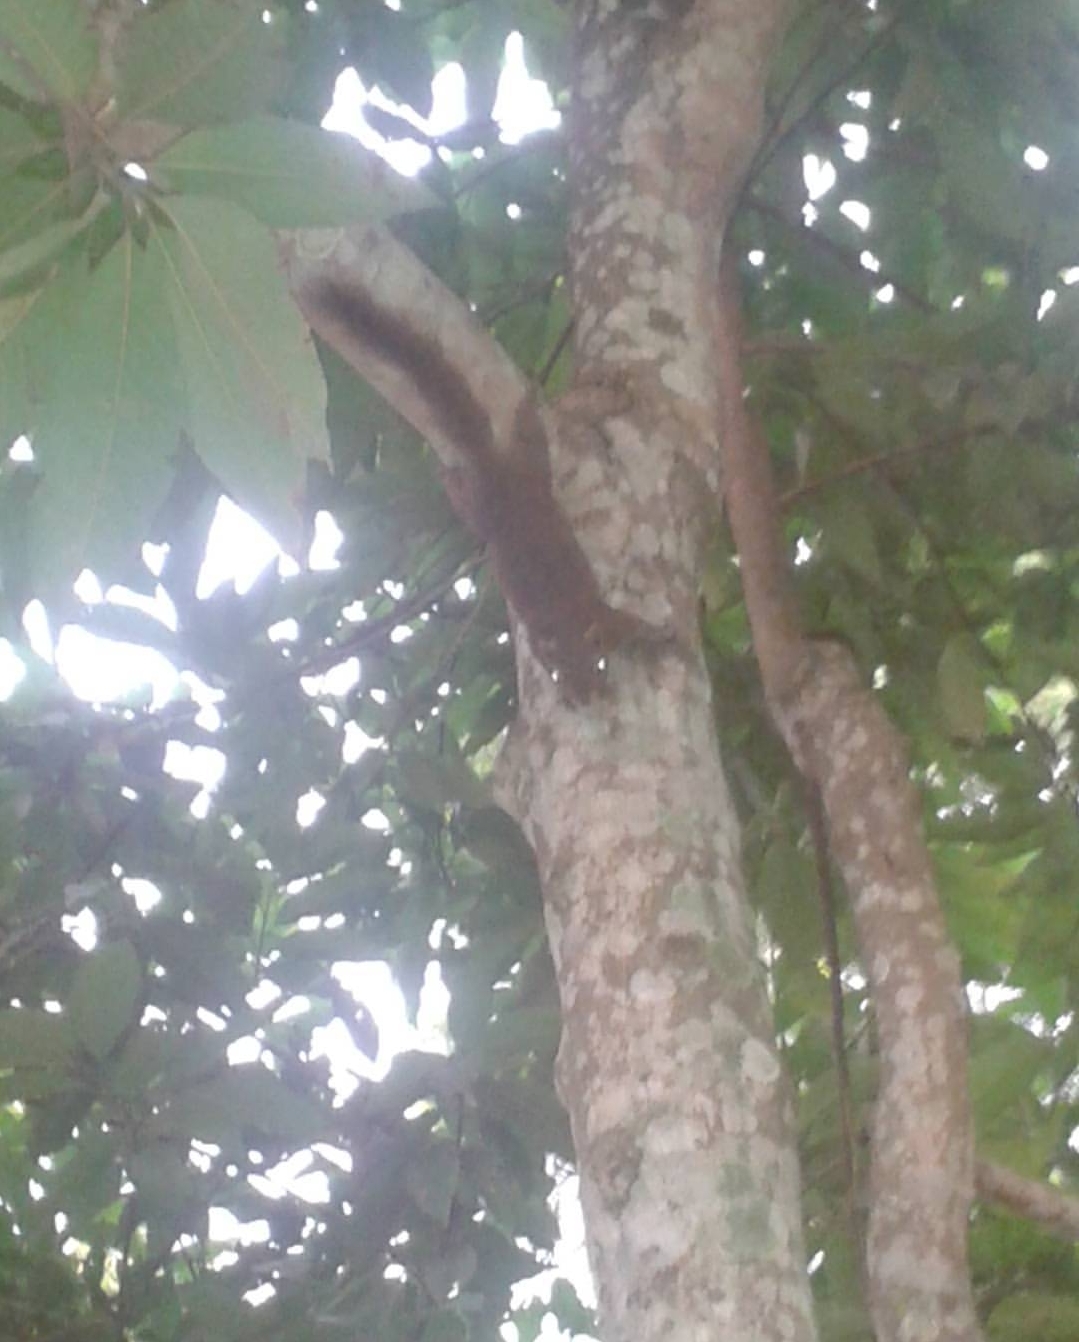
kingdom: Animalia
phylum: Chordata
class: Mammalia
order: Rodentia
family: Sciuridae
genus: Callosciurus
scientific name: Callosciurus erythraeus
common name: Pallas's squirrel
